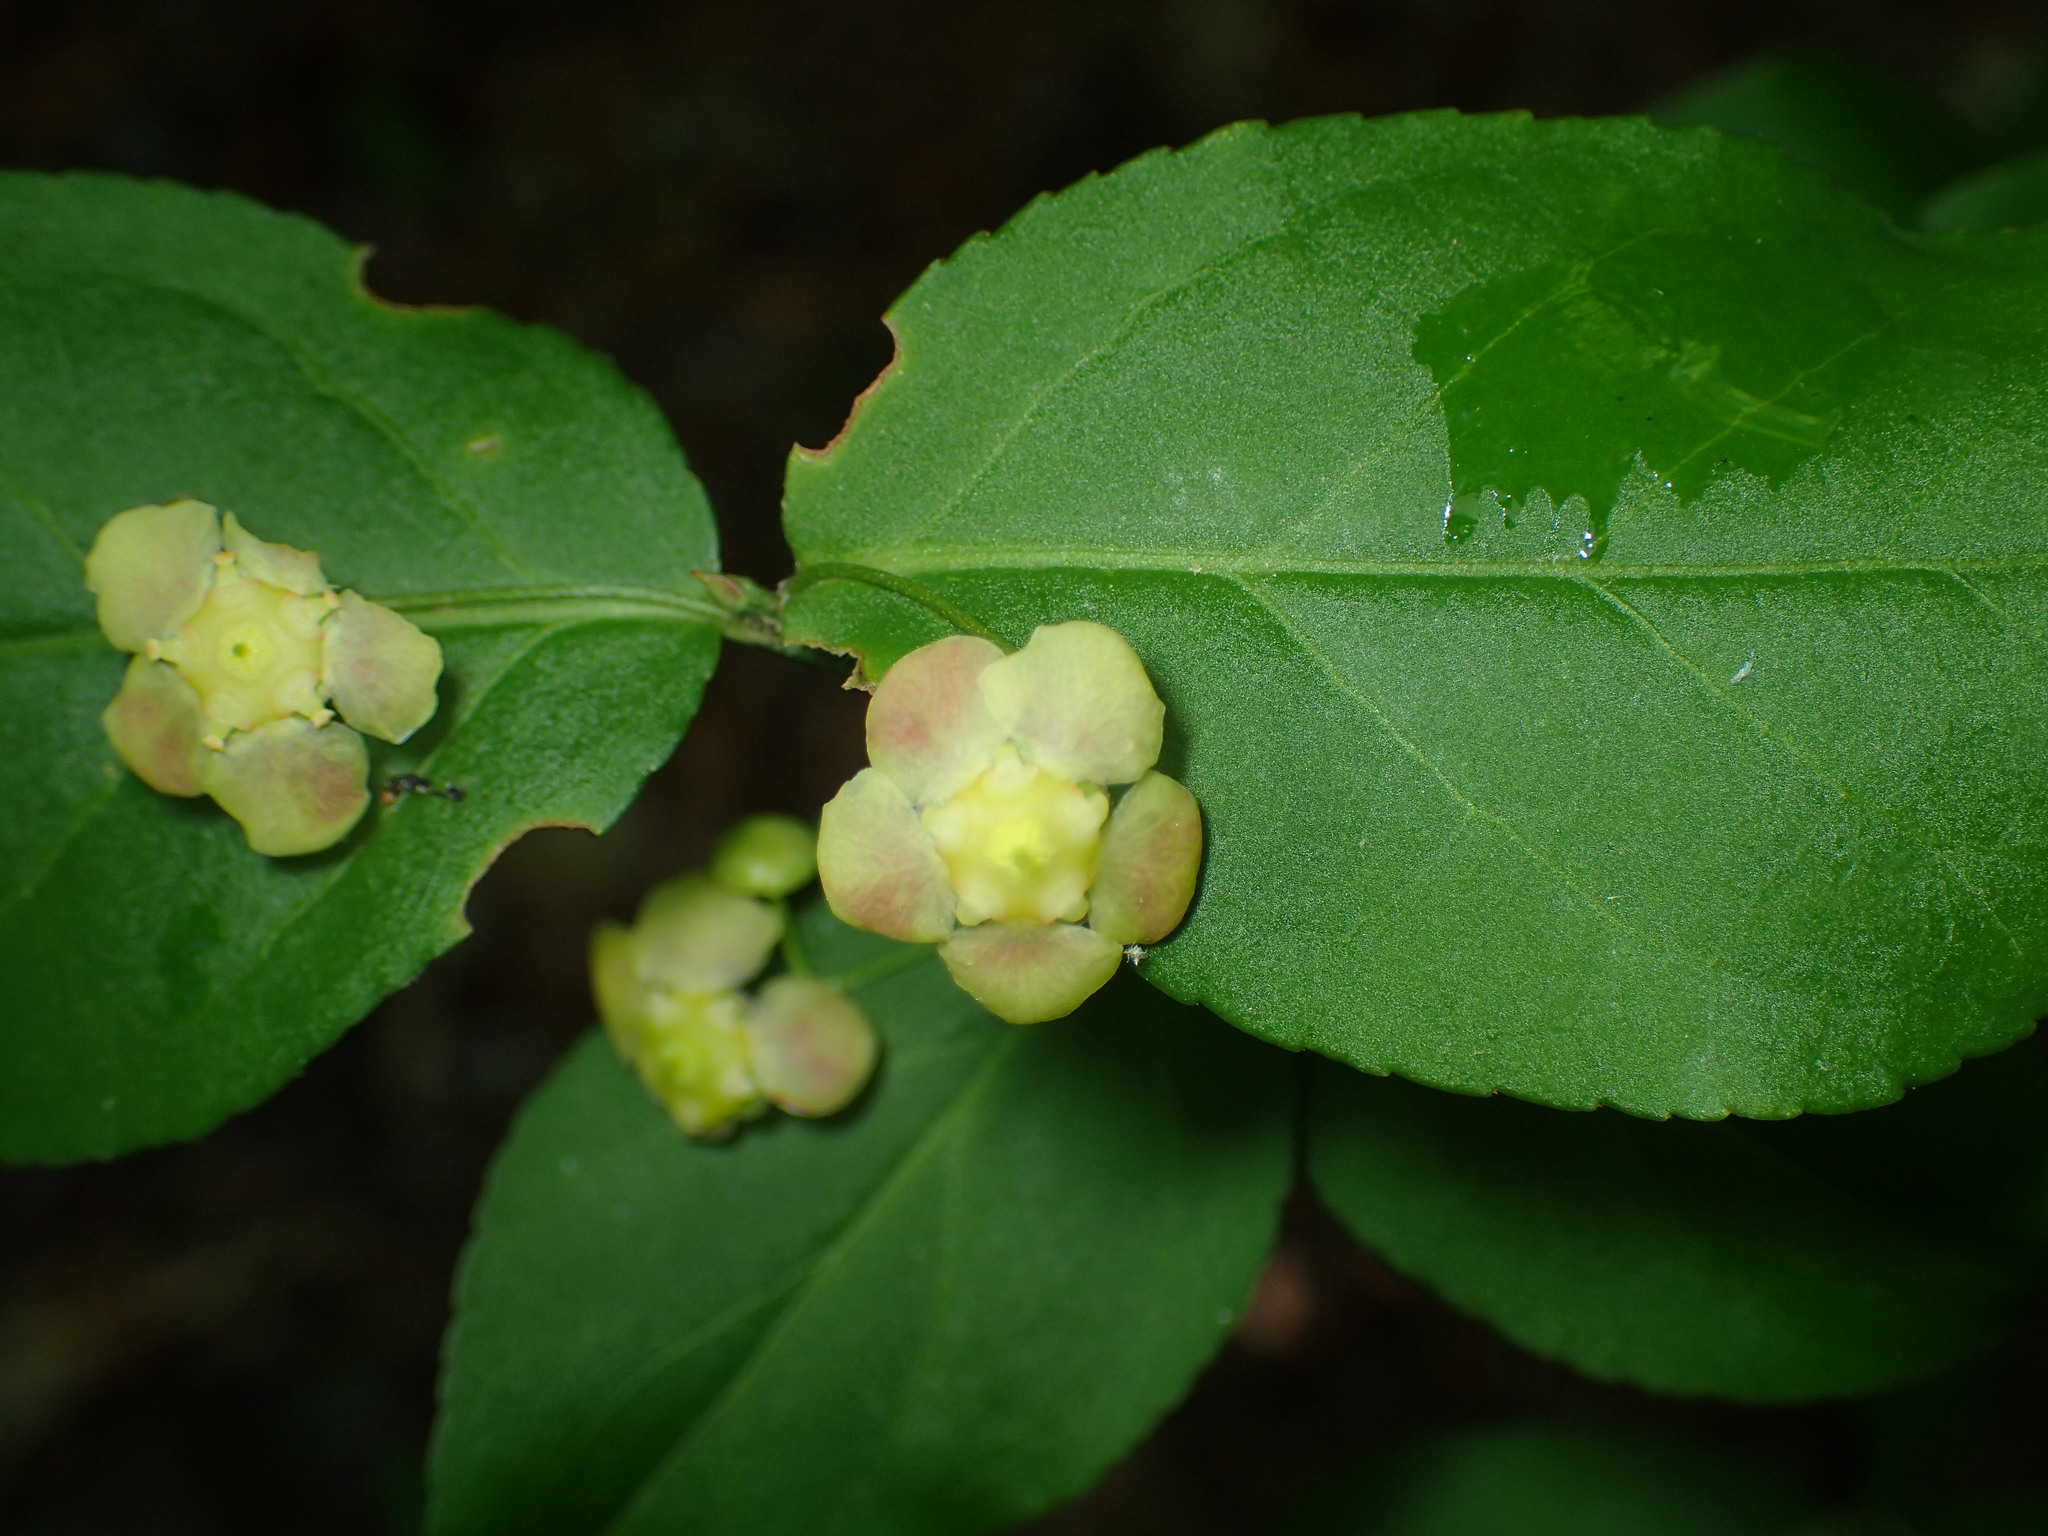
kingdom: Plantae
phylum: Tracheophyta
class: Magnoliopsida
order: Celastrales
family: Celastraceae
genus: Euonymus
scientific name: Euonymus americanus
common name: Bursting-heart
